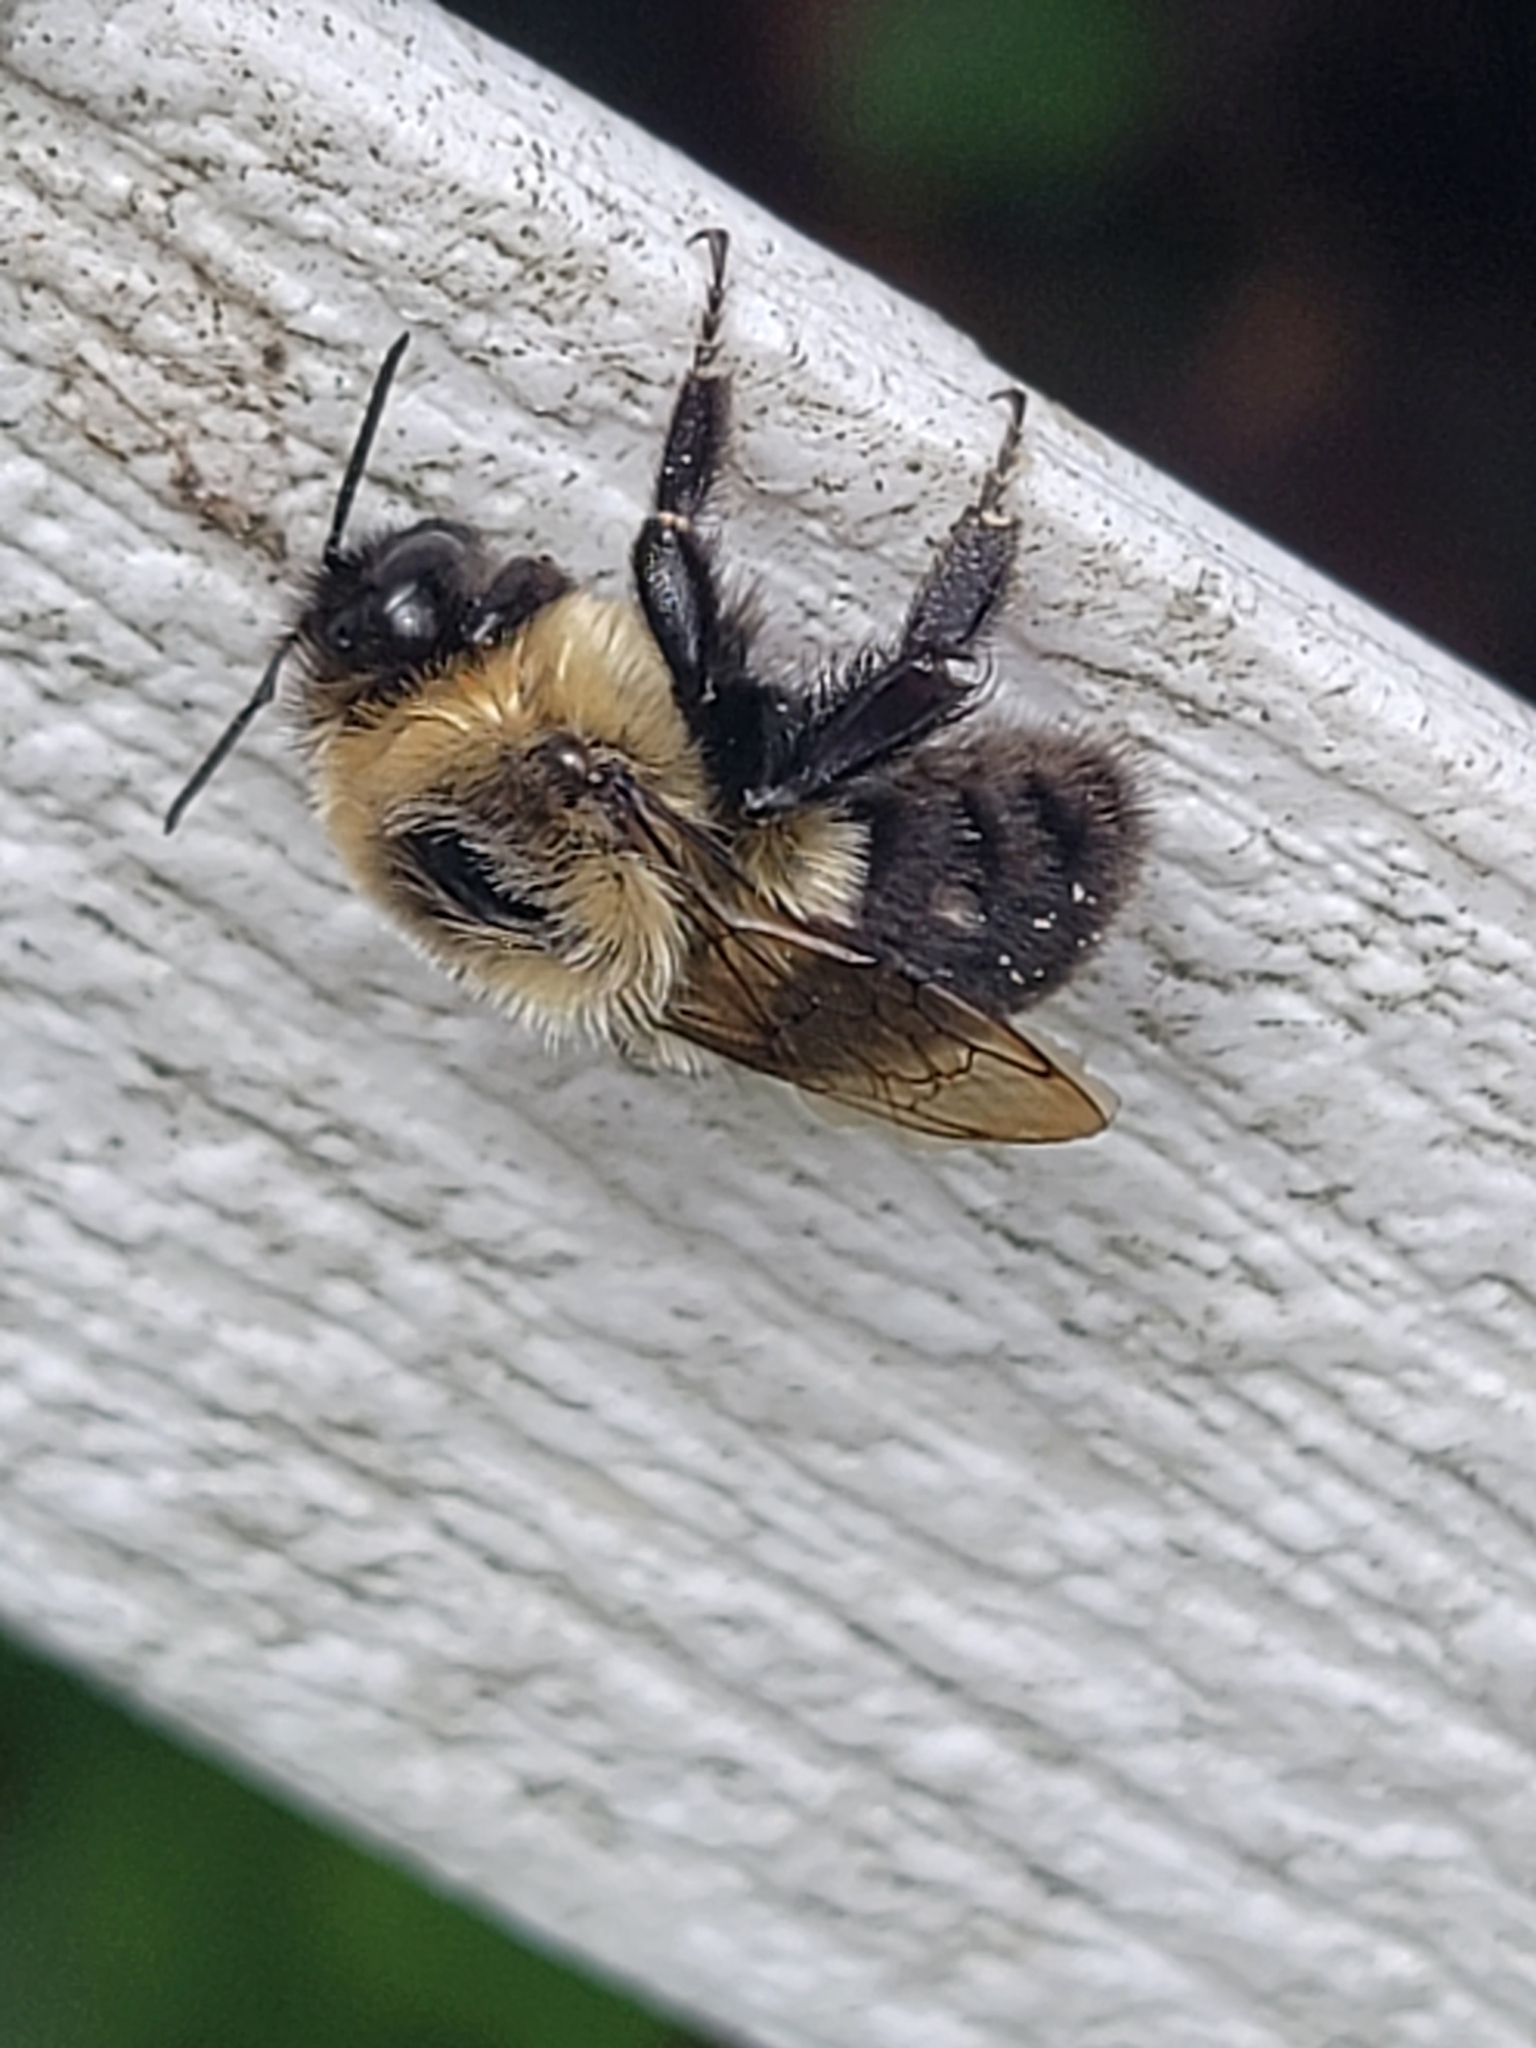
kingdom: Animalia
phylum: Arthropoda
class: Insecta
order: Hymenoptera
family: Apidae
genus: Bombus
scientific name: Bombus impatiens
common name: Common eastern bumble bee
